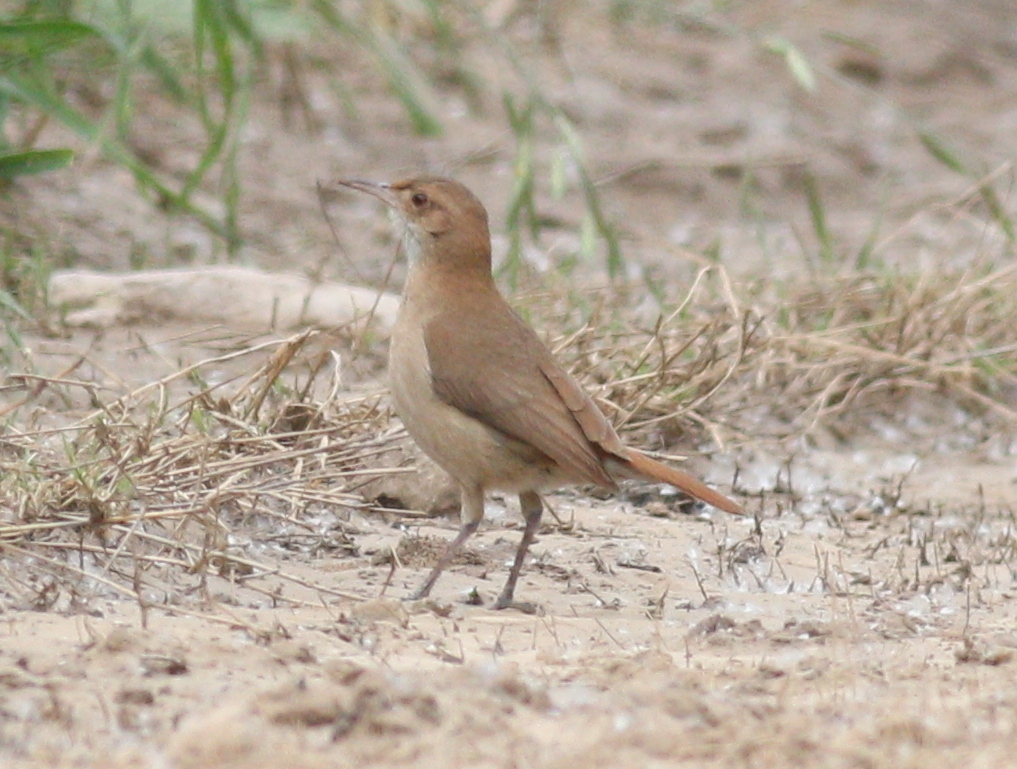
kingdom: Animalia
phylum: Chordata
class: Aves
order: Passeriformes
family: Furnariidae
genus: Furnarius
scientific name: Furnarius rufus
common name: Rufous hornero
